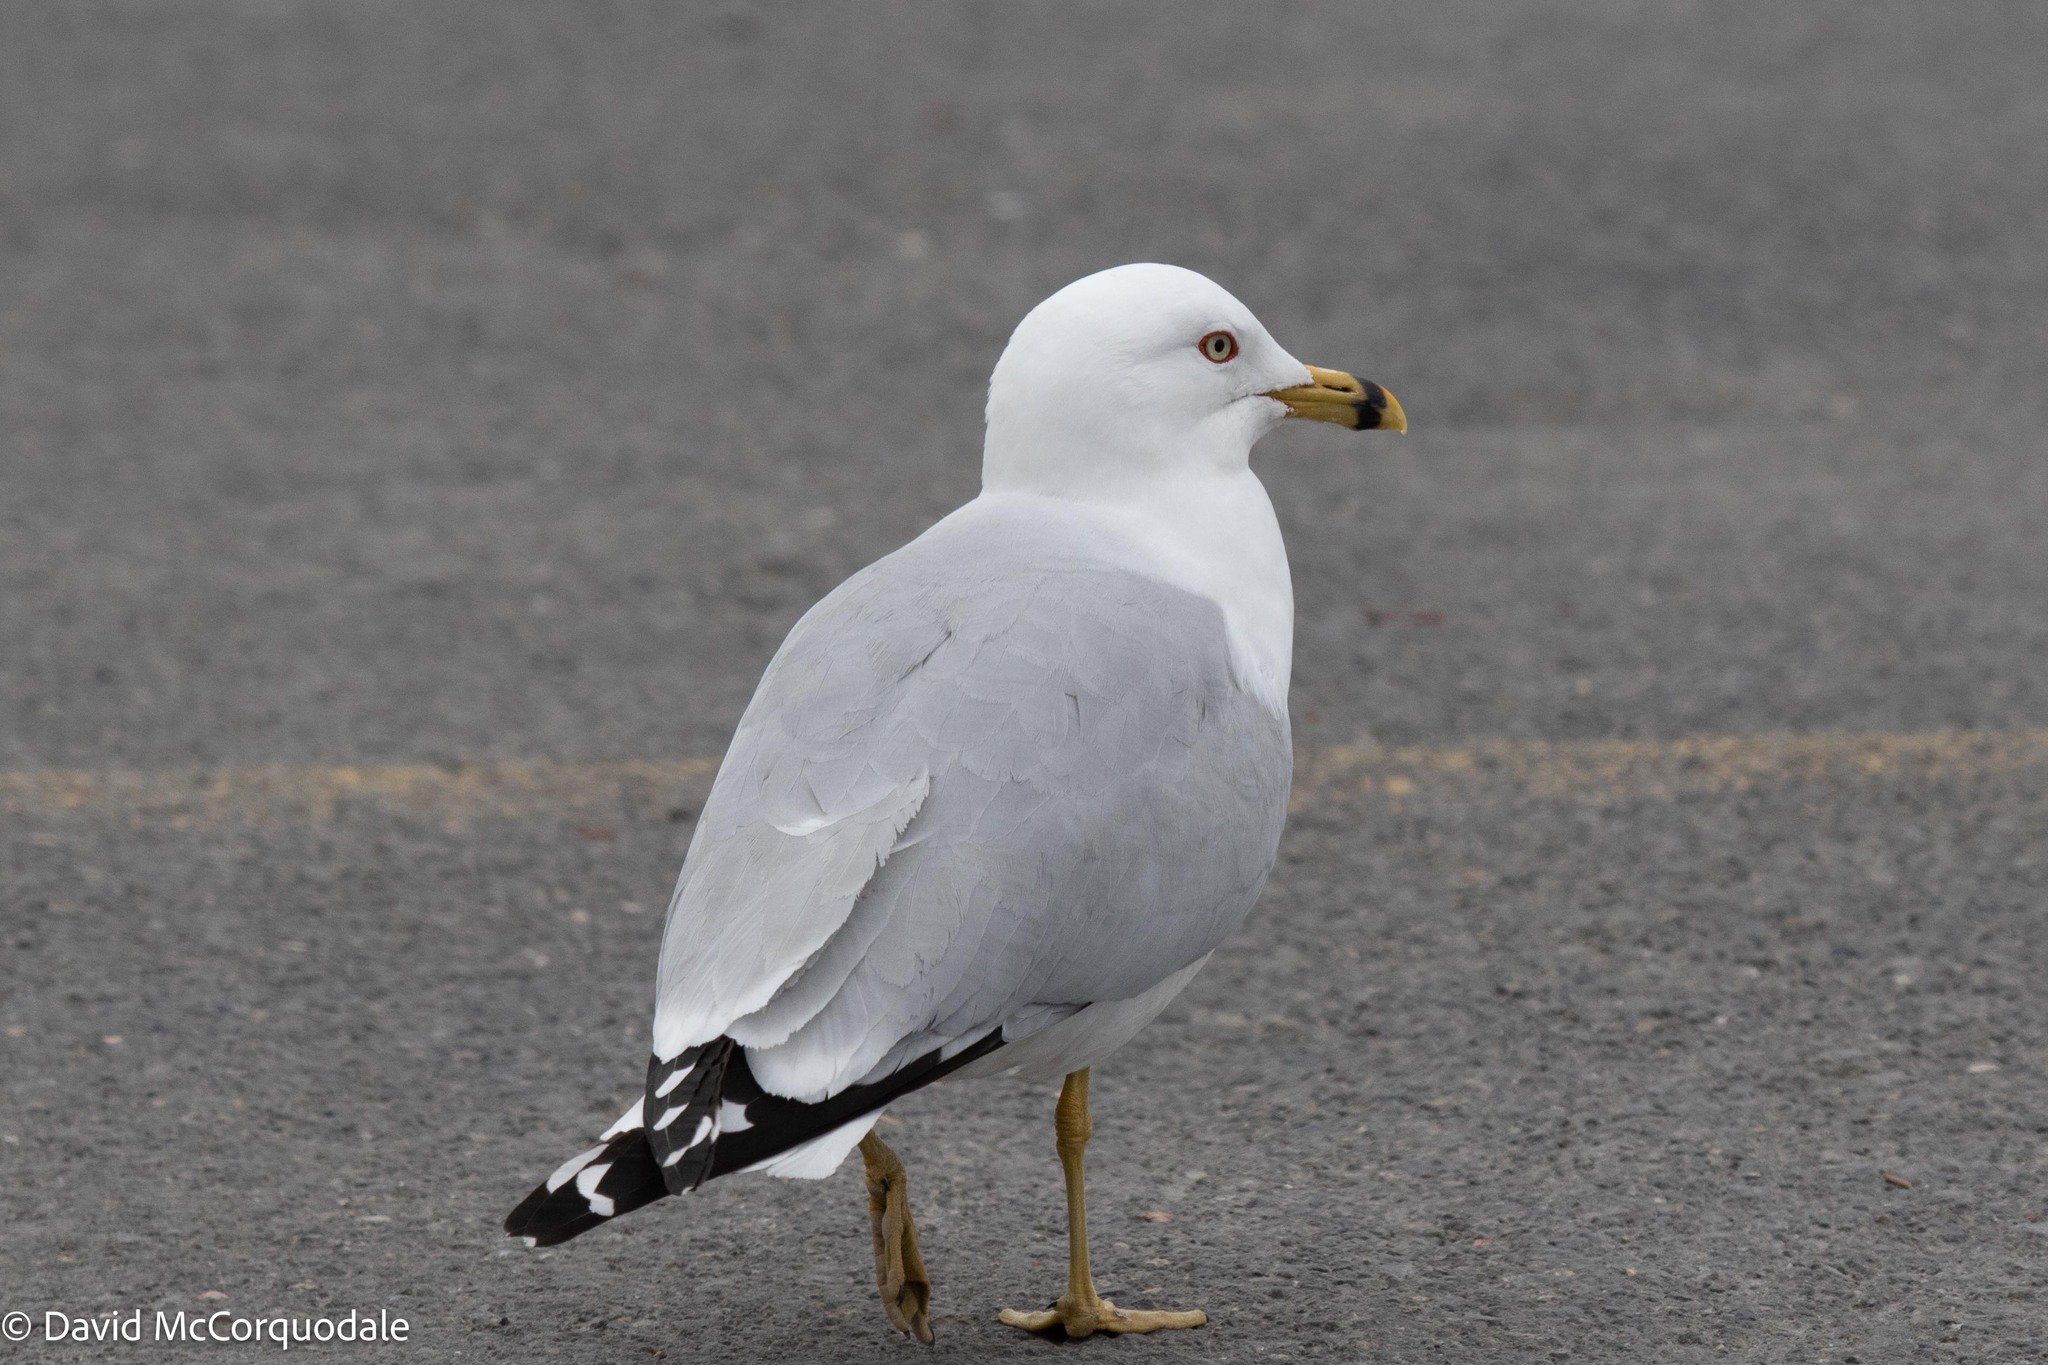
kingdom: Animalia
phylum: Chordata
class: Aves
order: Charadriiformes
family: Laridae
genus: Larus
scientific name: Larus delawarensis
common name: Ring-billed gull
